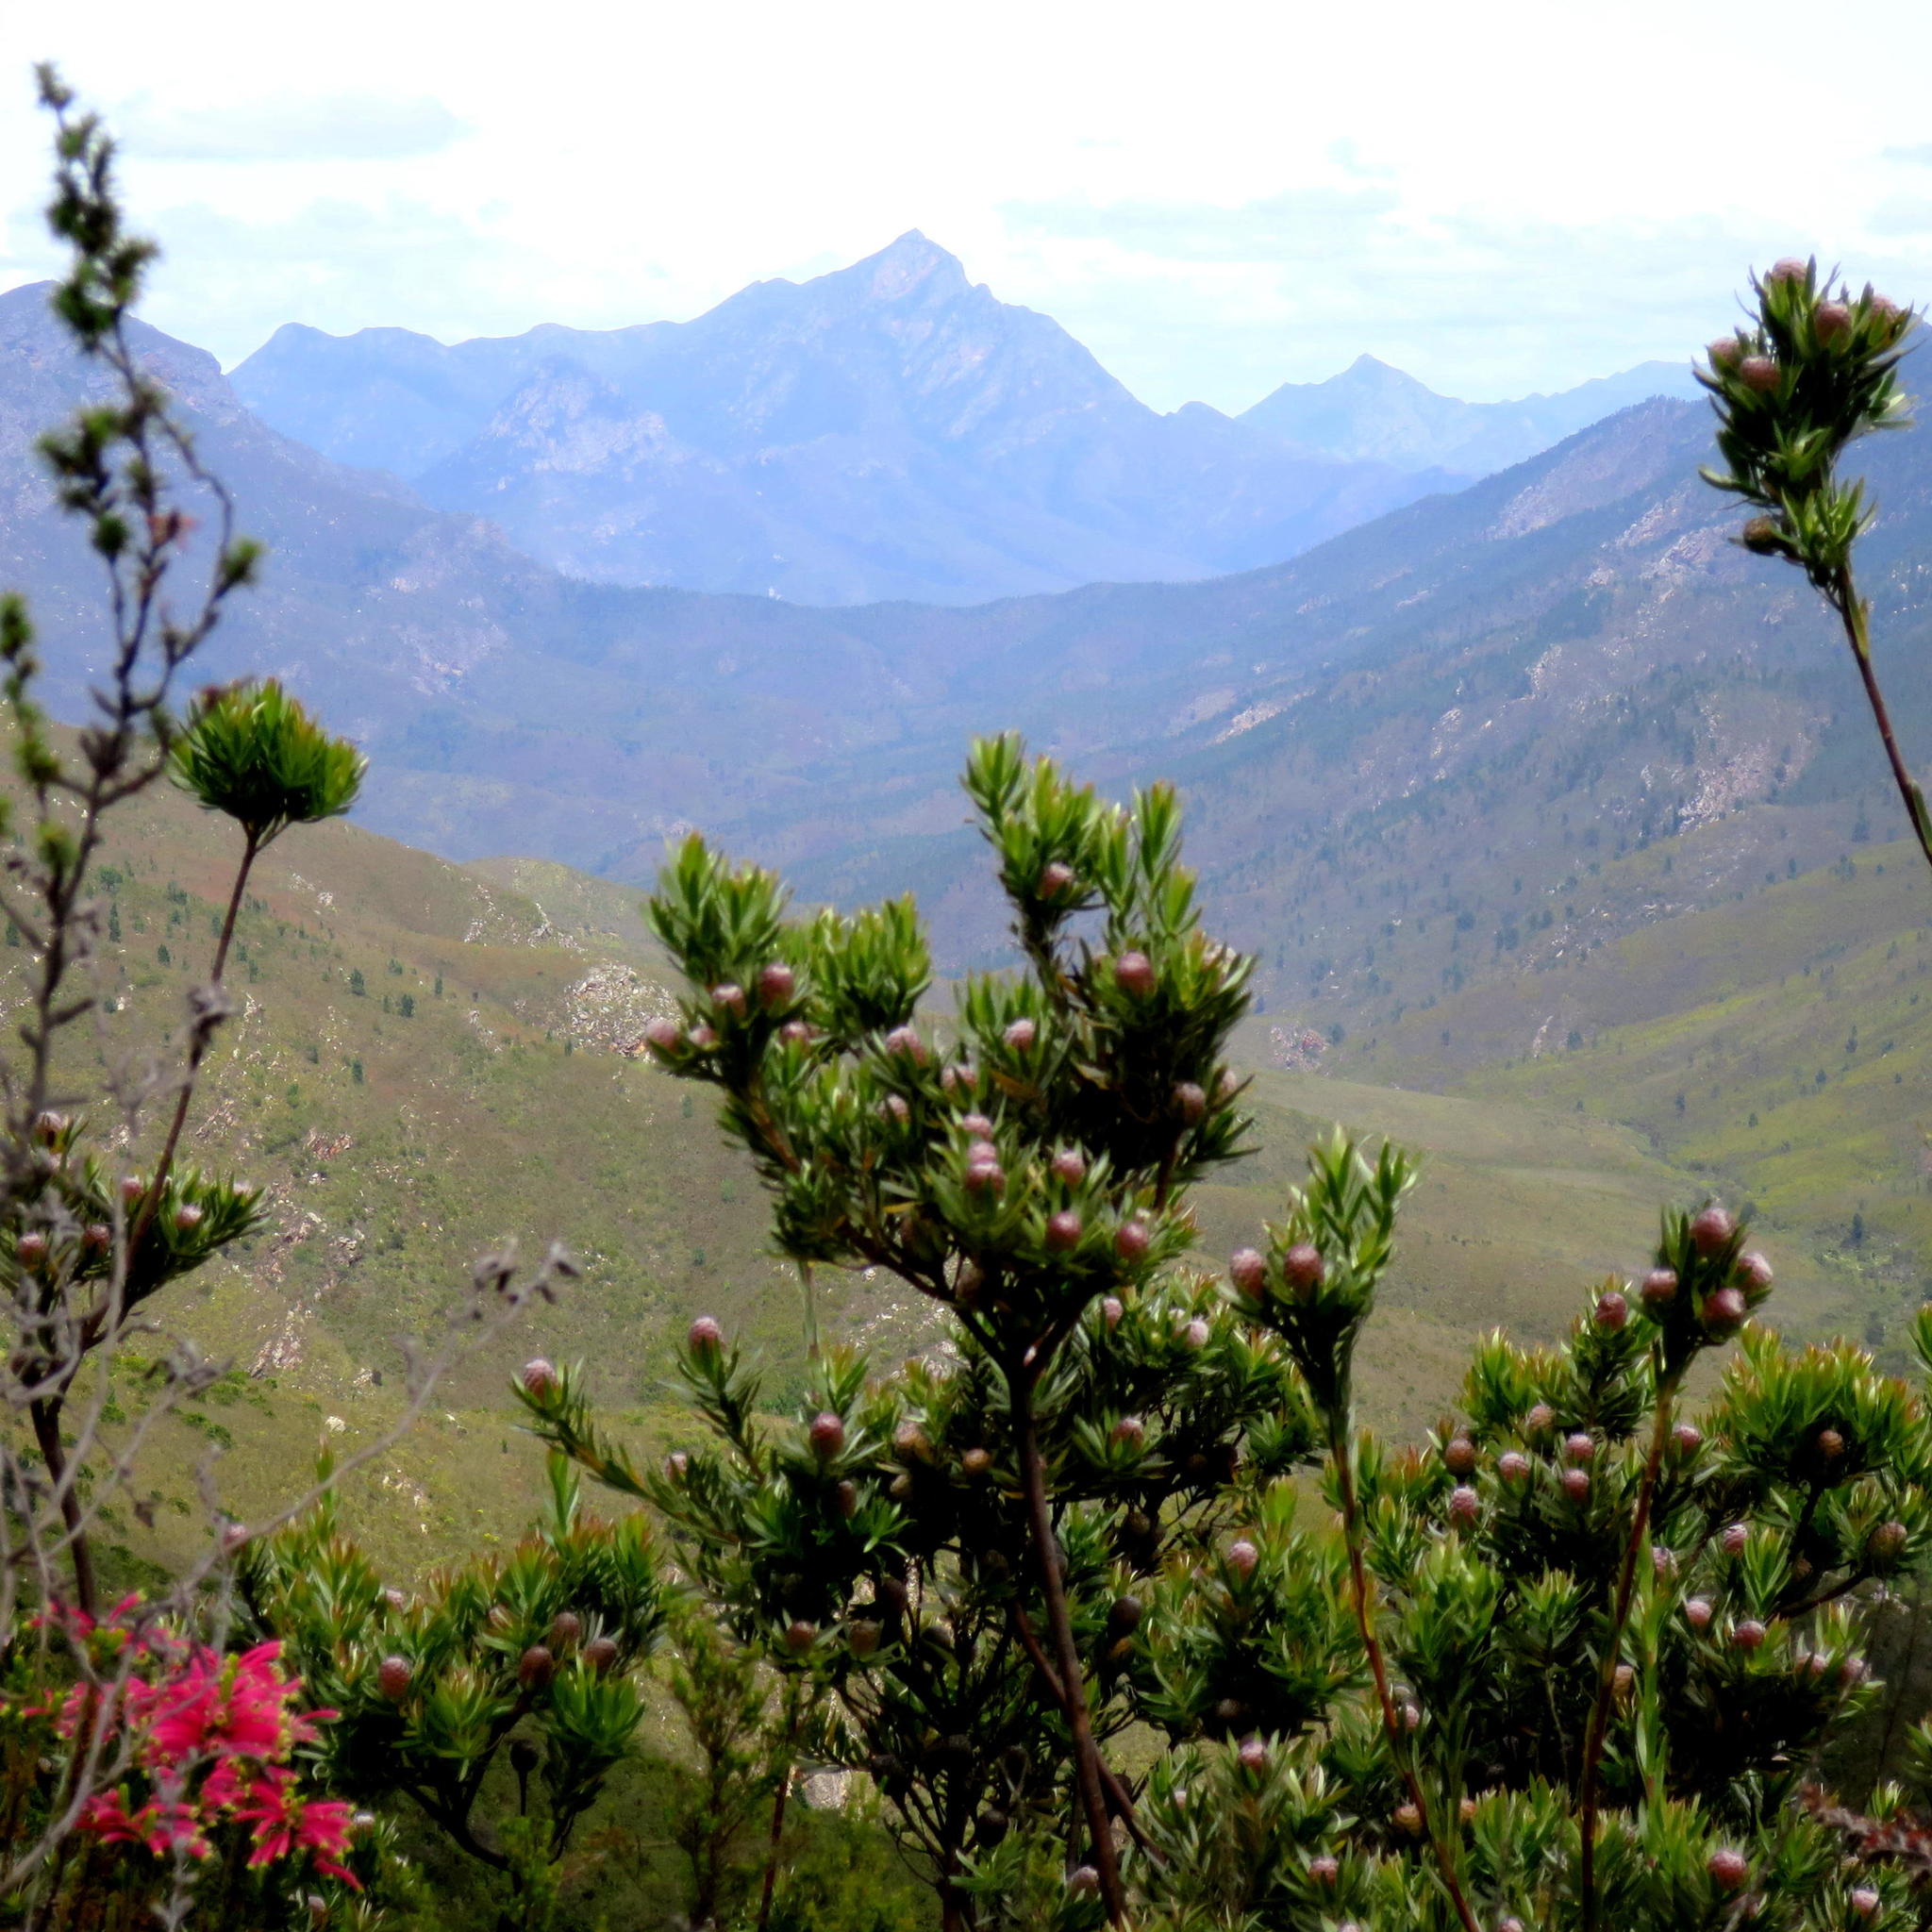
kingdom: Plantae
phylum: Tracheophyta
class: Magnoliopsida
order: Proteales
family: Proteaceae
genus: Leucadendron
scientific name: Leucadendron uliginosum
